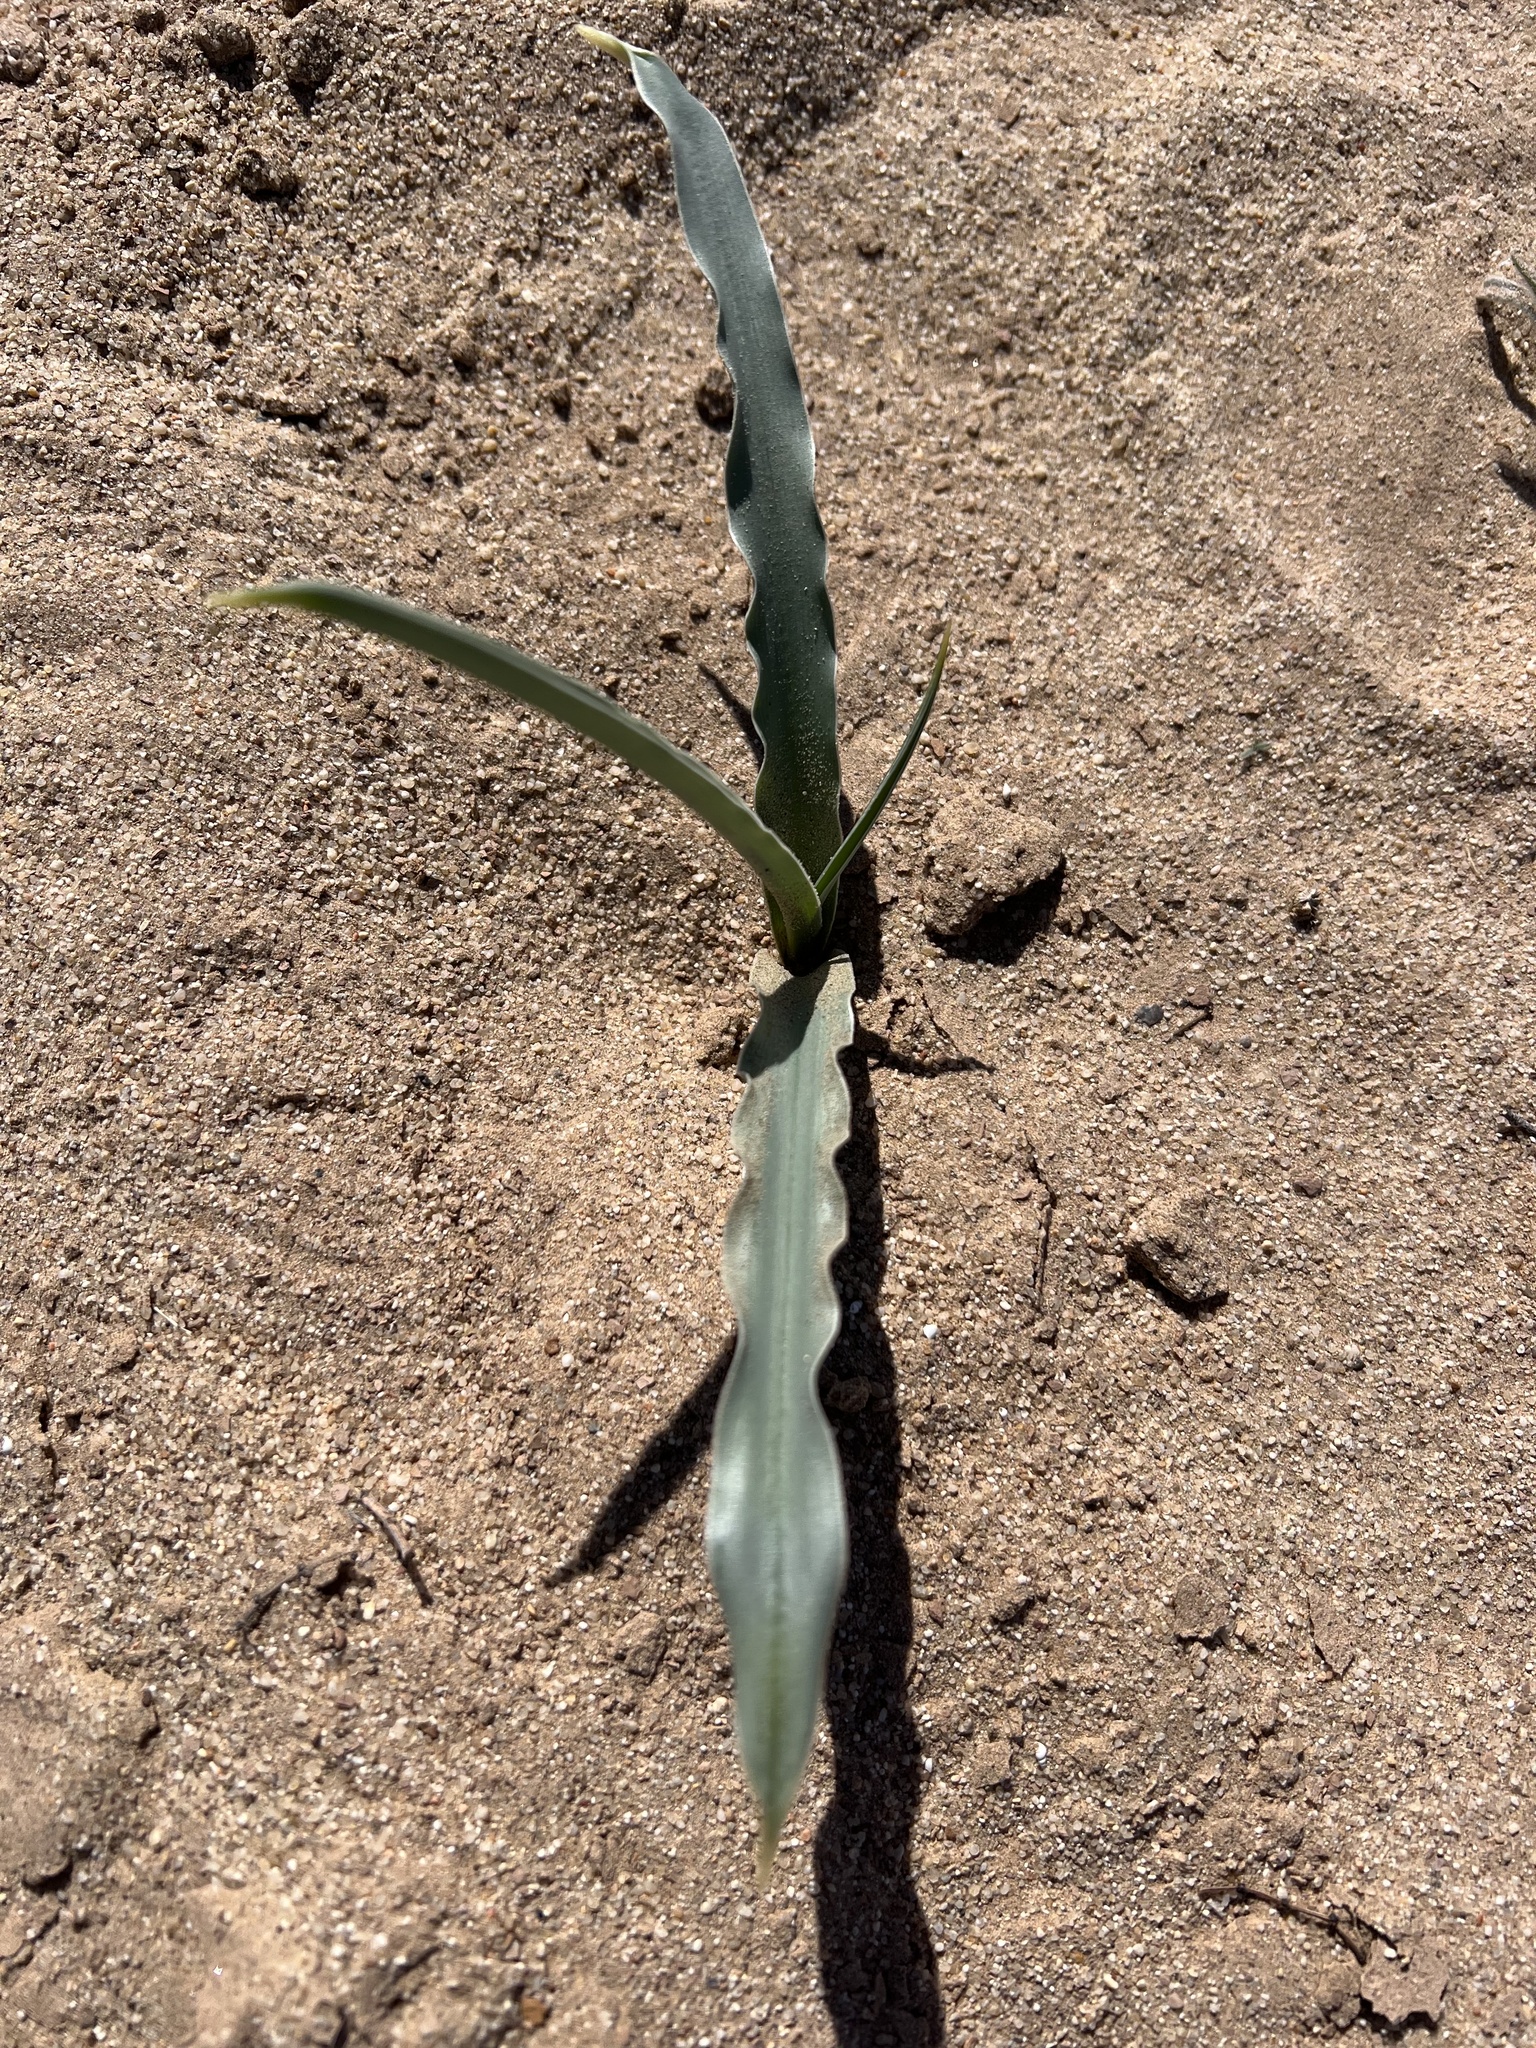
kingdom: Plantae
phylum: Tracheophyta
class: Liliopsida
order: Asparagales
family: Asparagaceae
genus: Hesperocallis
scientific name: Hesperocallis undulata
